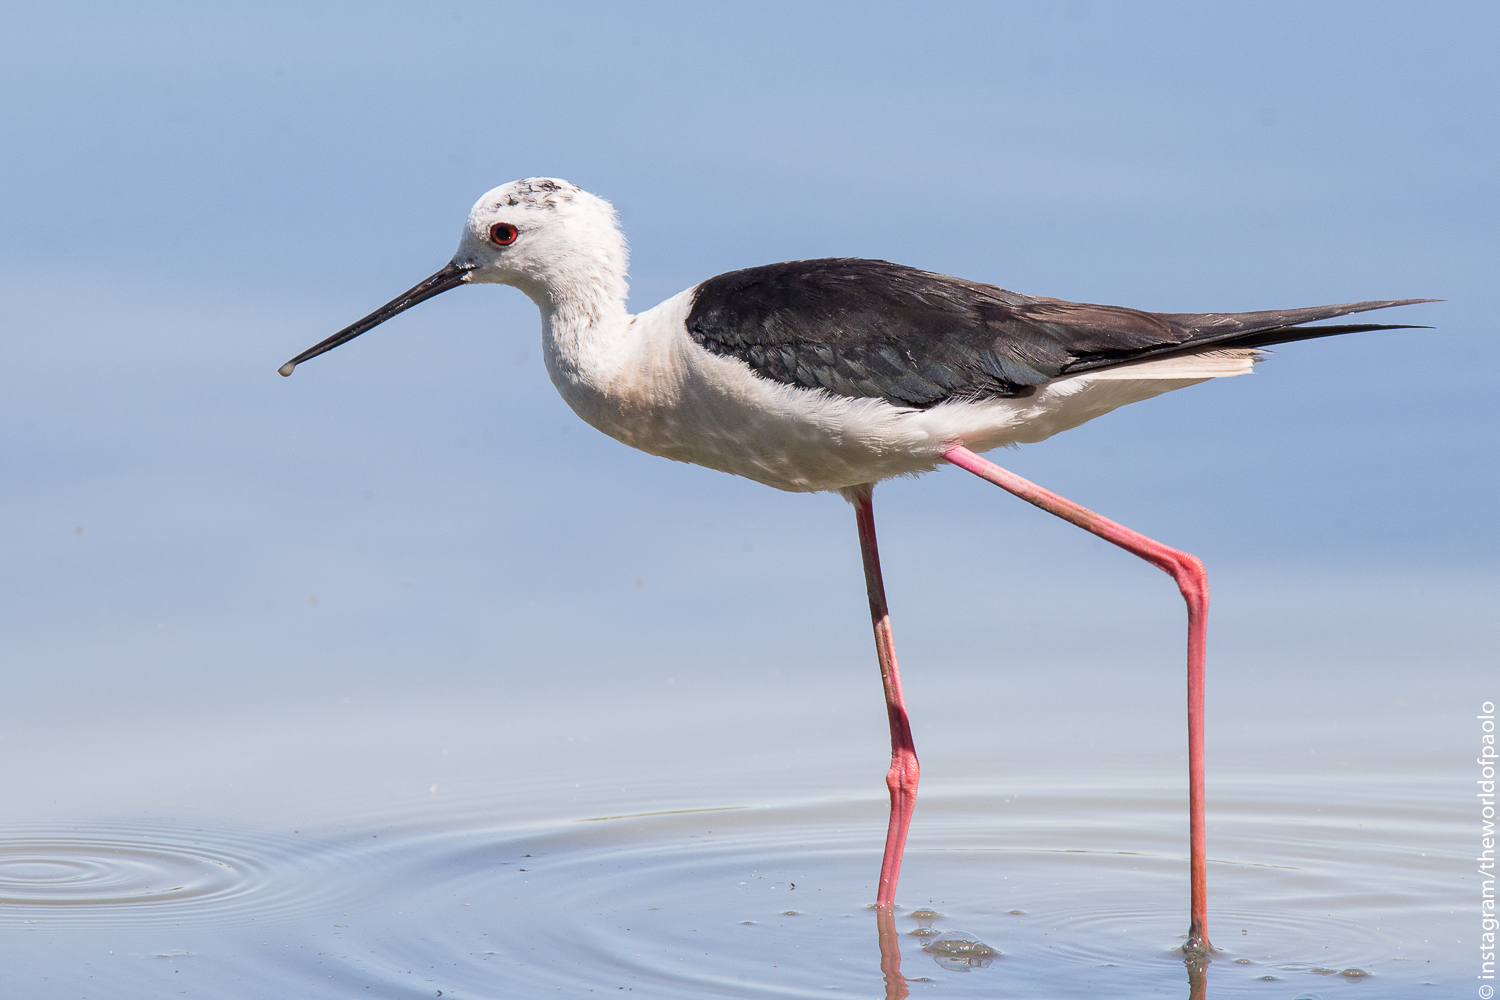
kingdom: Animalia
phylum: Chordata
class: Aves
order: Charadriiformes
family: Recurvirostridae
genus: Himantopus
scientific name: Himantopus himantopus
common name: Black-winged stilt
